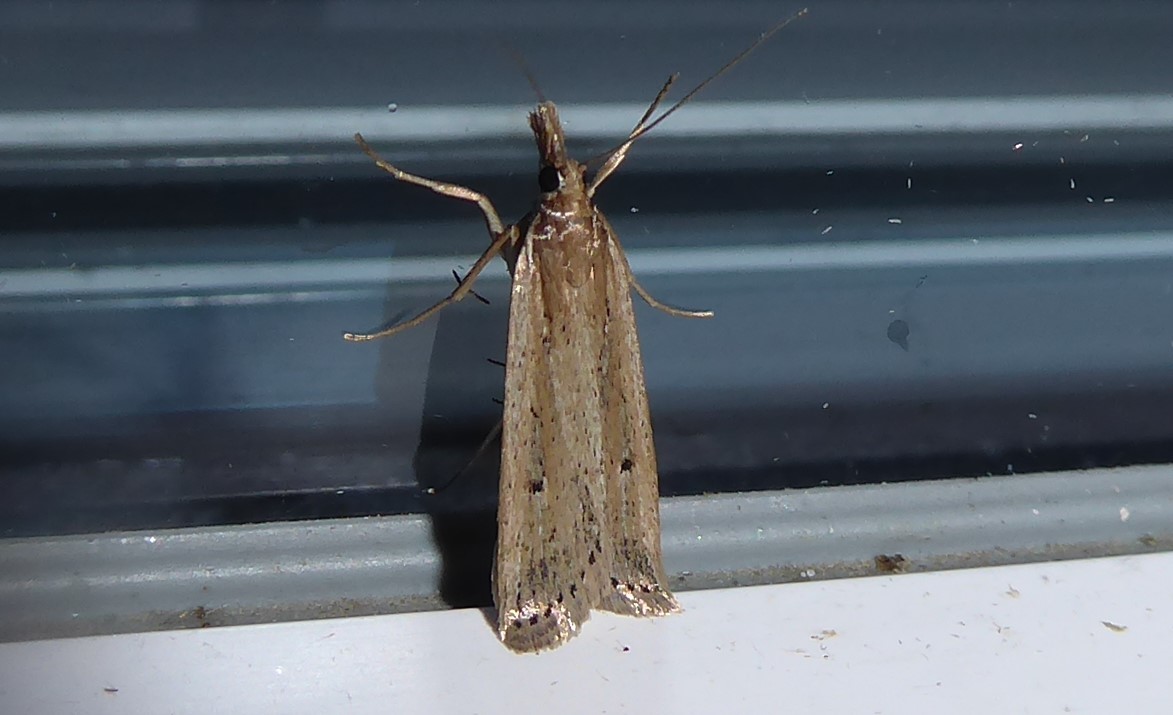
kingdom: Animalia
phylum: Arthropoda
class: Insecta
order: Lepidoptera
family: Crambidae
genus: Eudonia
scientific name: Eudonia sabulosella
